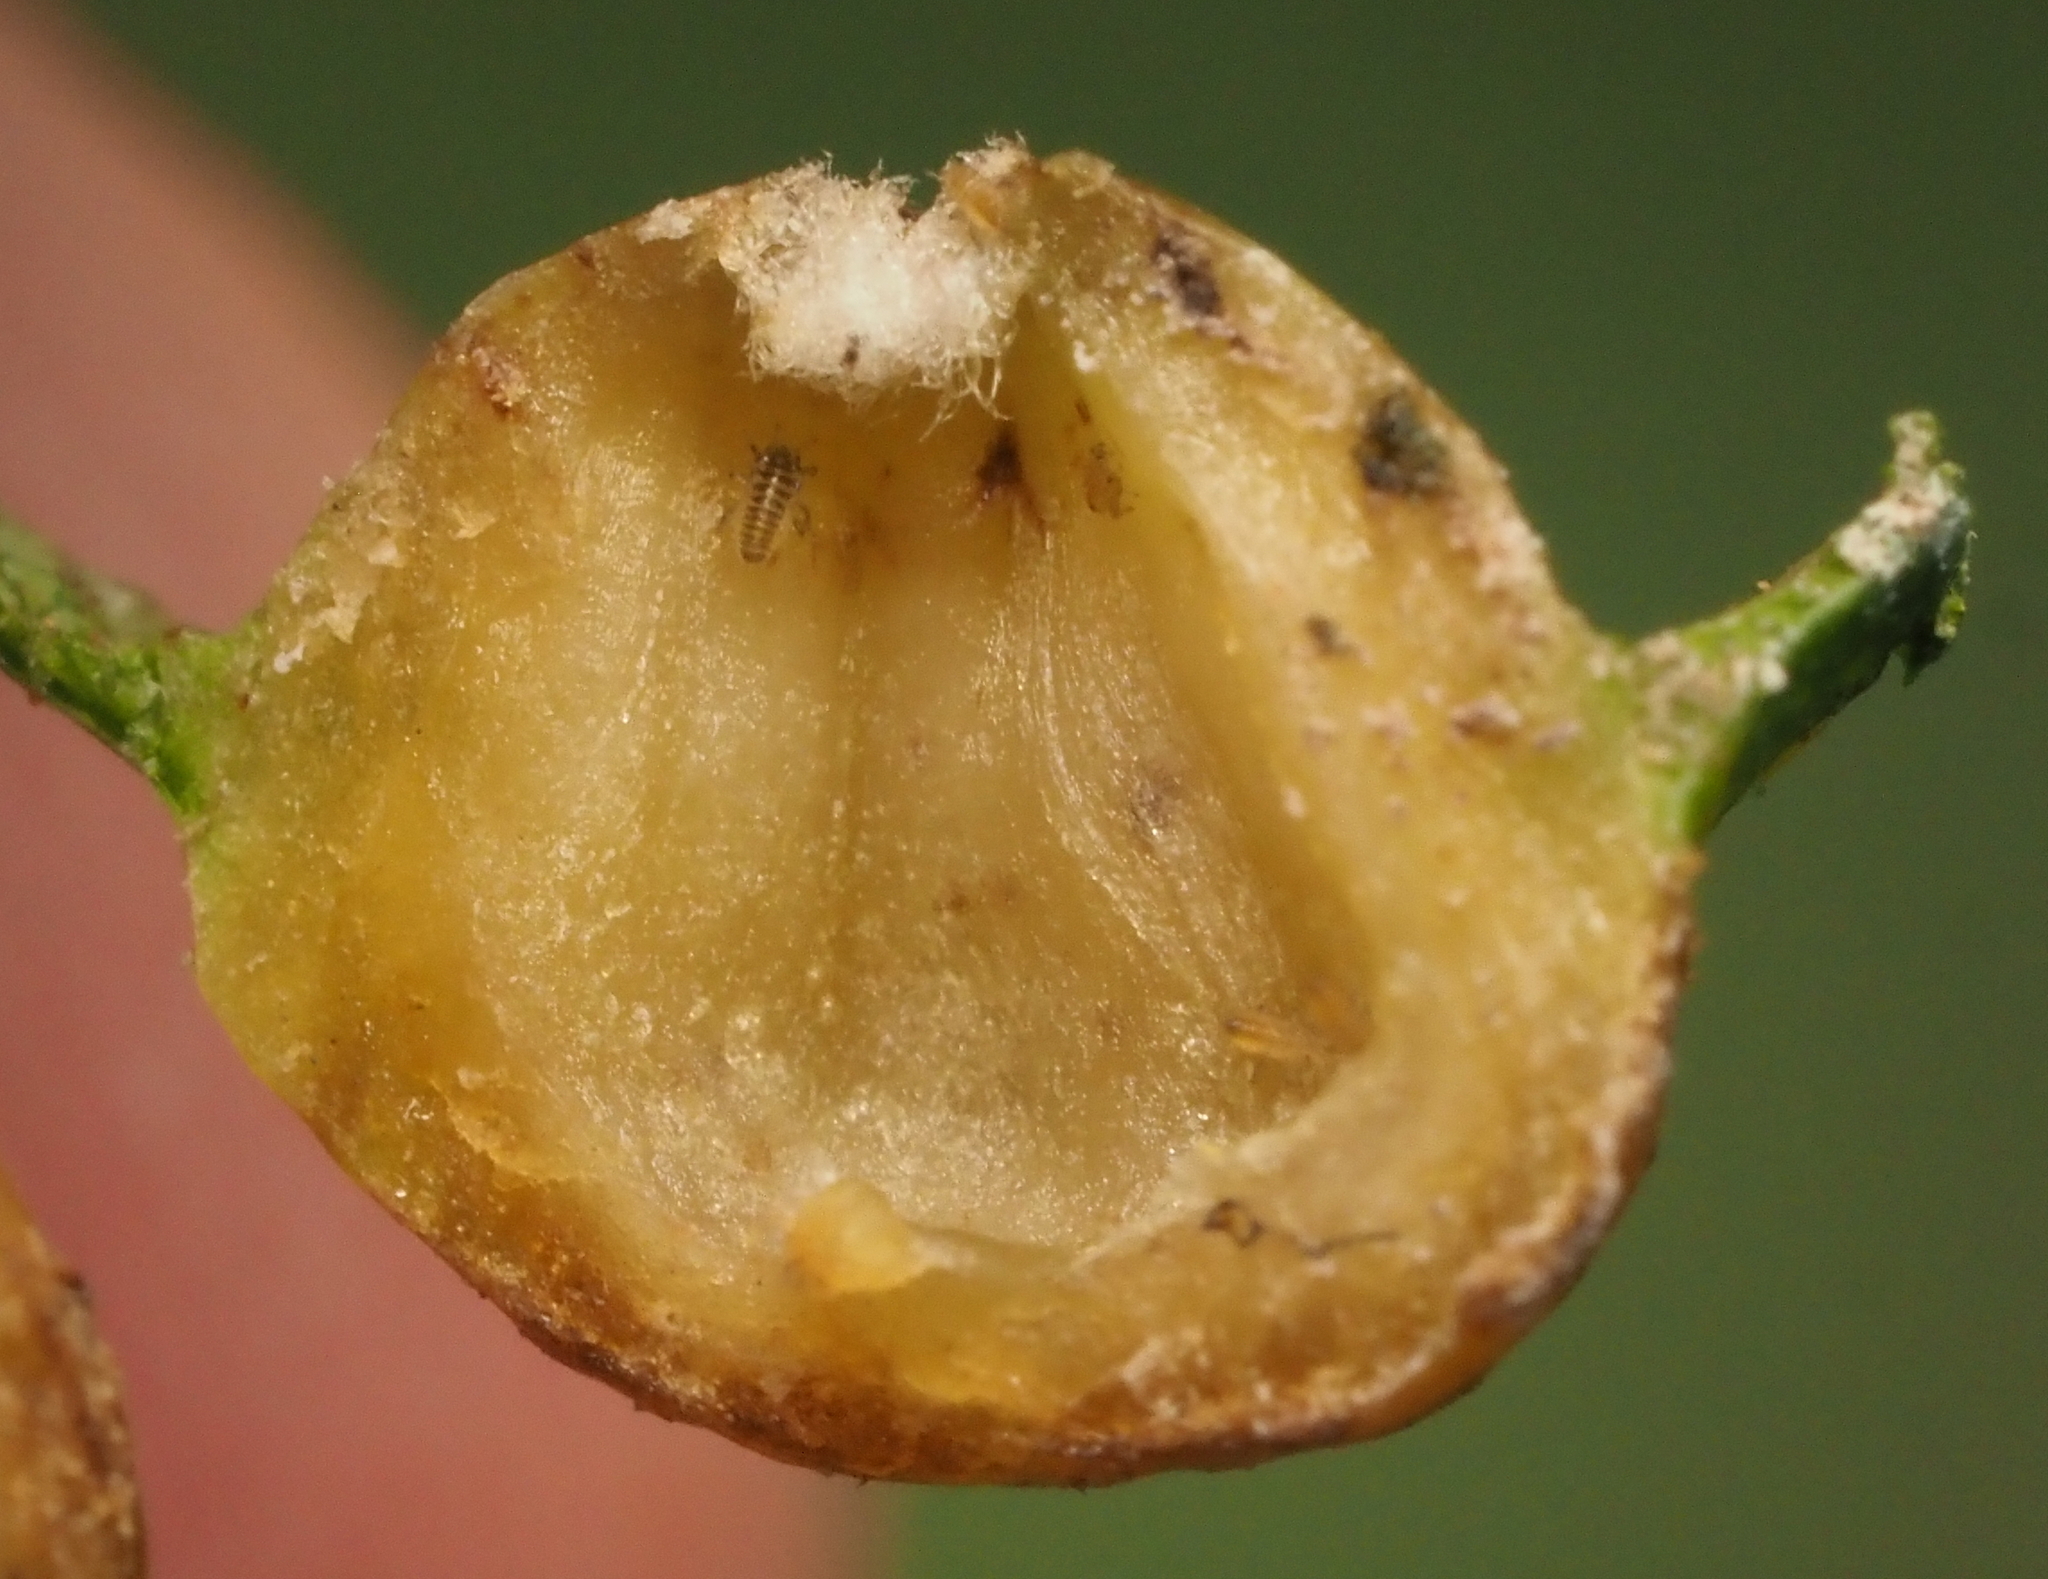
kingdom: Animalia
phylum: Arthropoda
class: Insecta
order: Hemiptera
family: Phylloxeridae
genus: Phylloxera
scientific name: Phylloxera russellae
